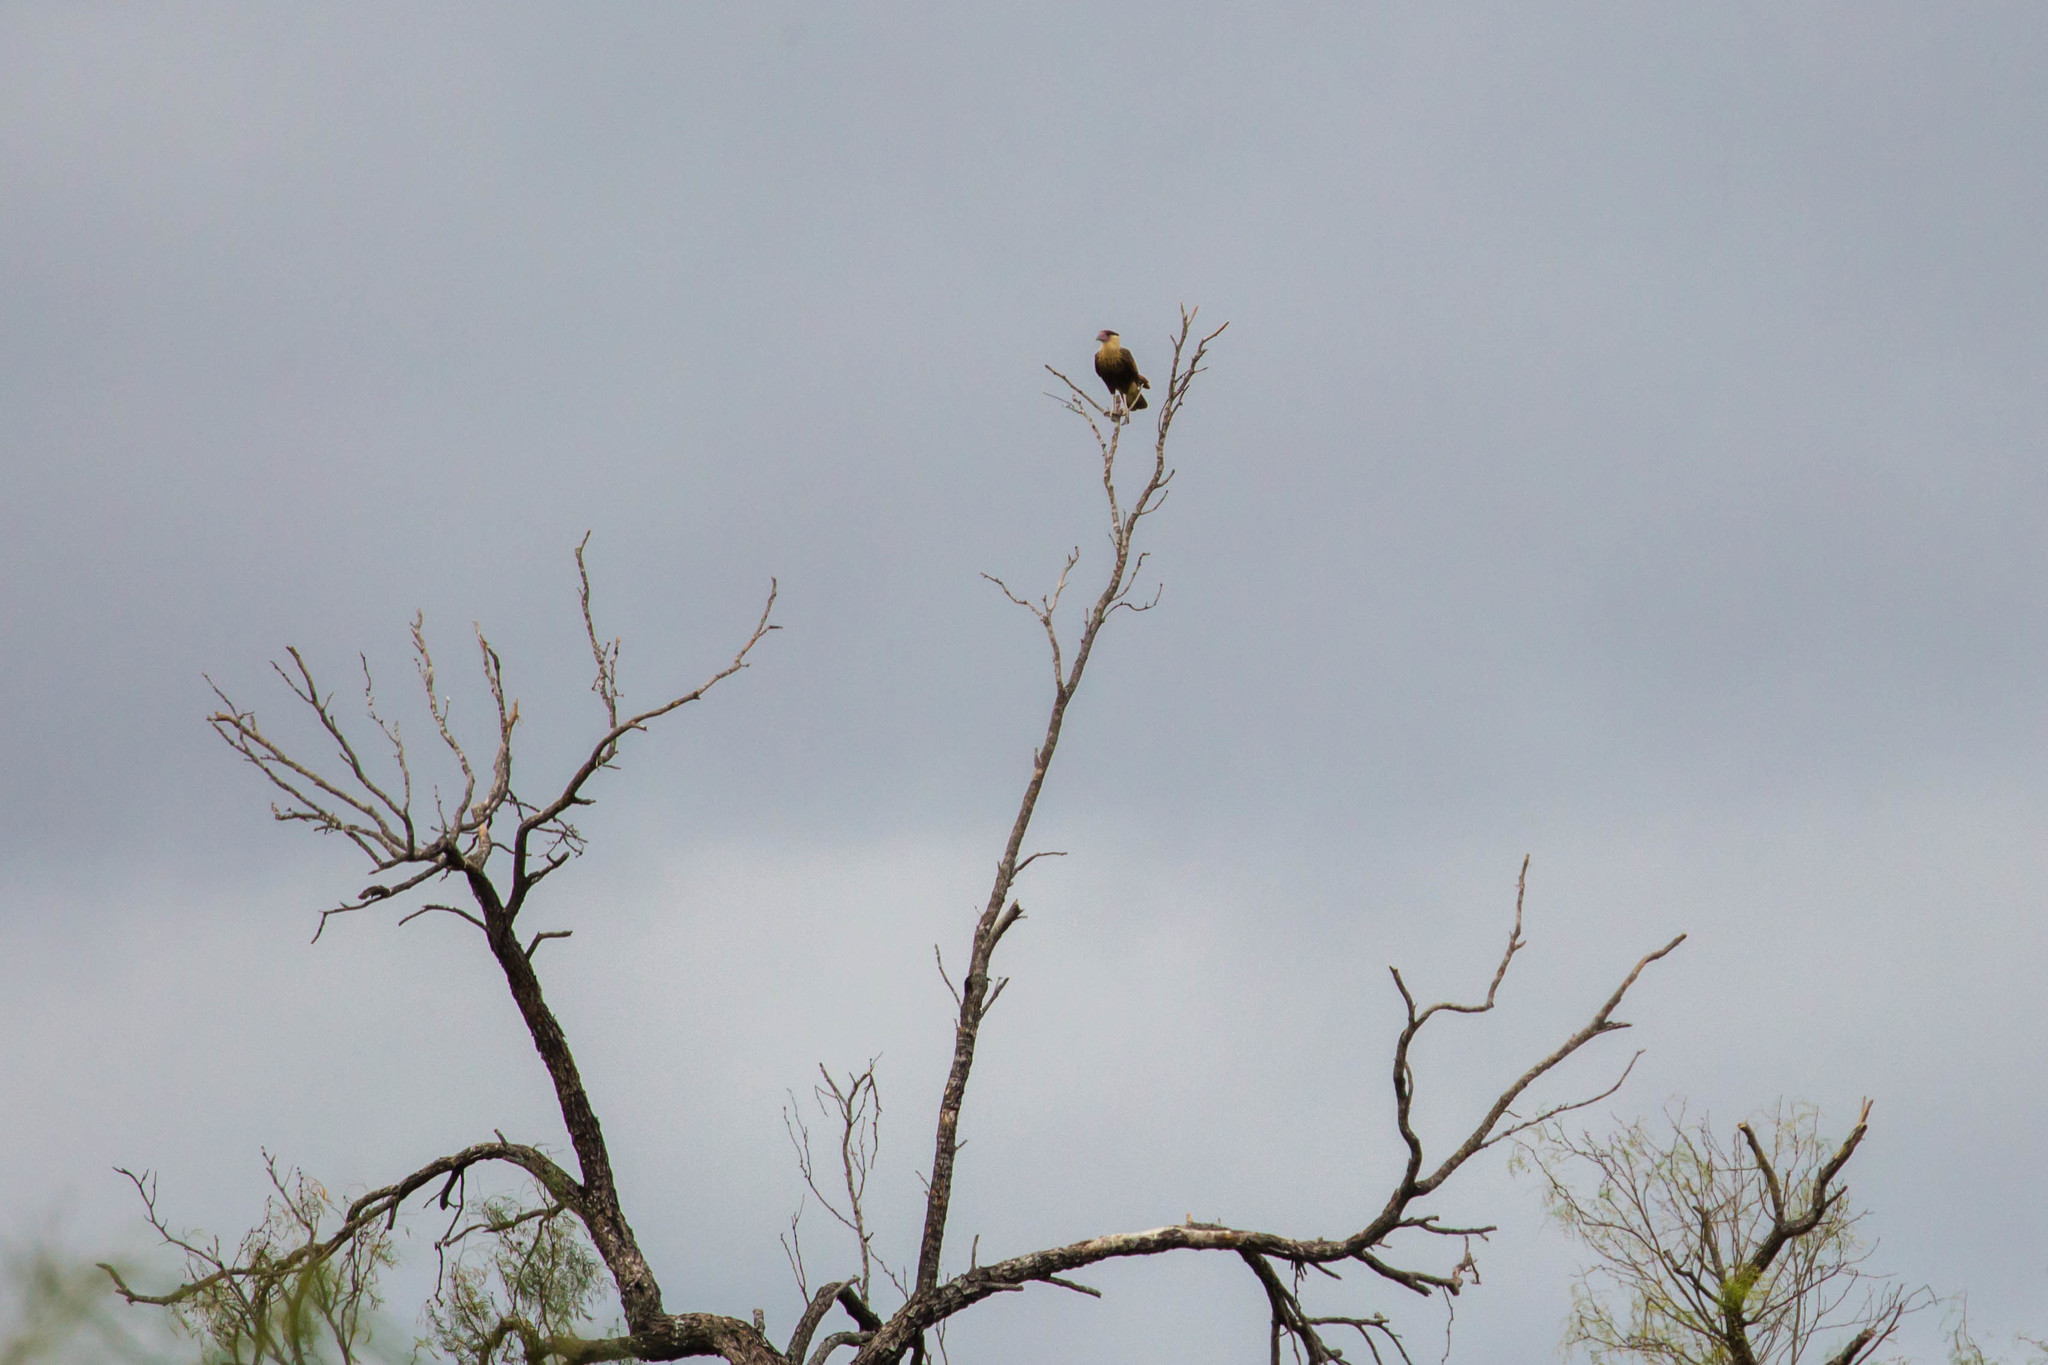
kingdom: Animalia
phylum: Chordata
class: Aves
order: Falconiformes
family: Falconidae
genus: Caracara
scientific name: Caracara plancus
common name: Southern caracara
